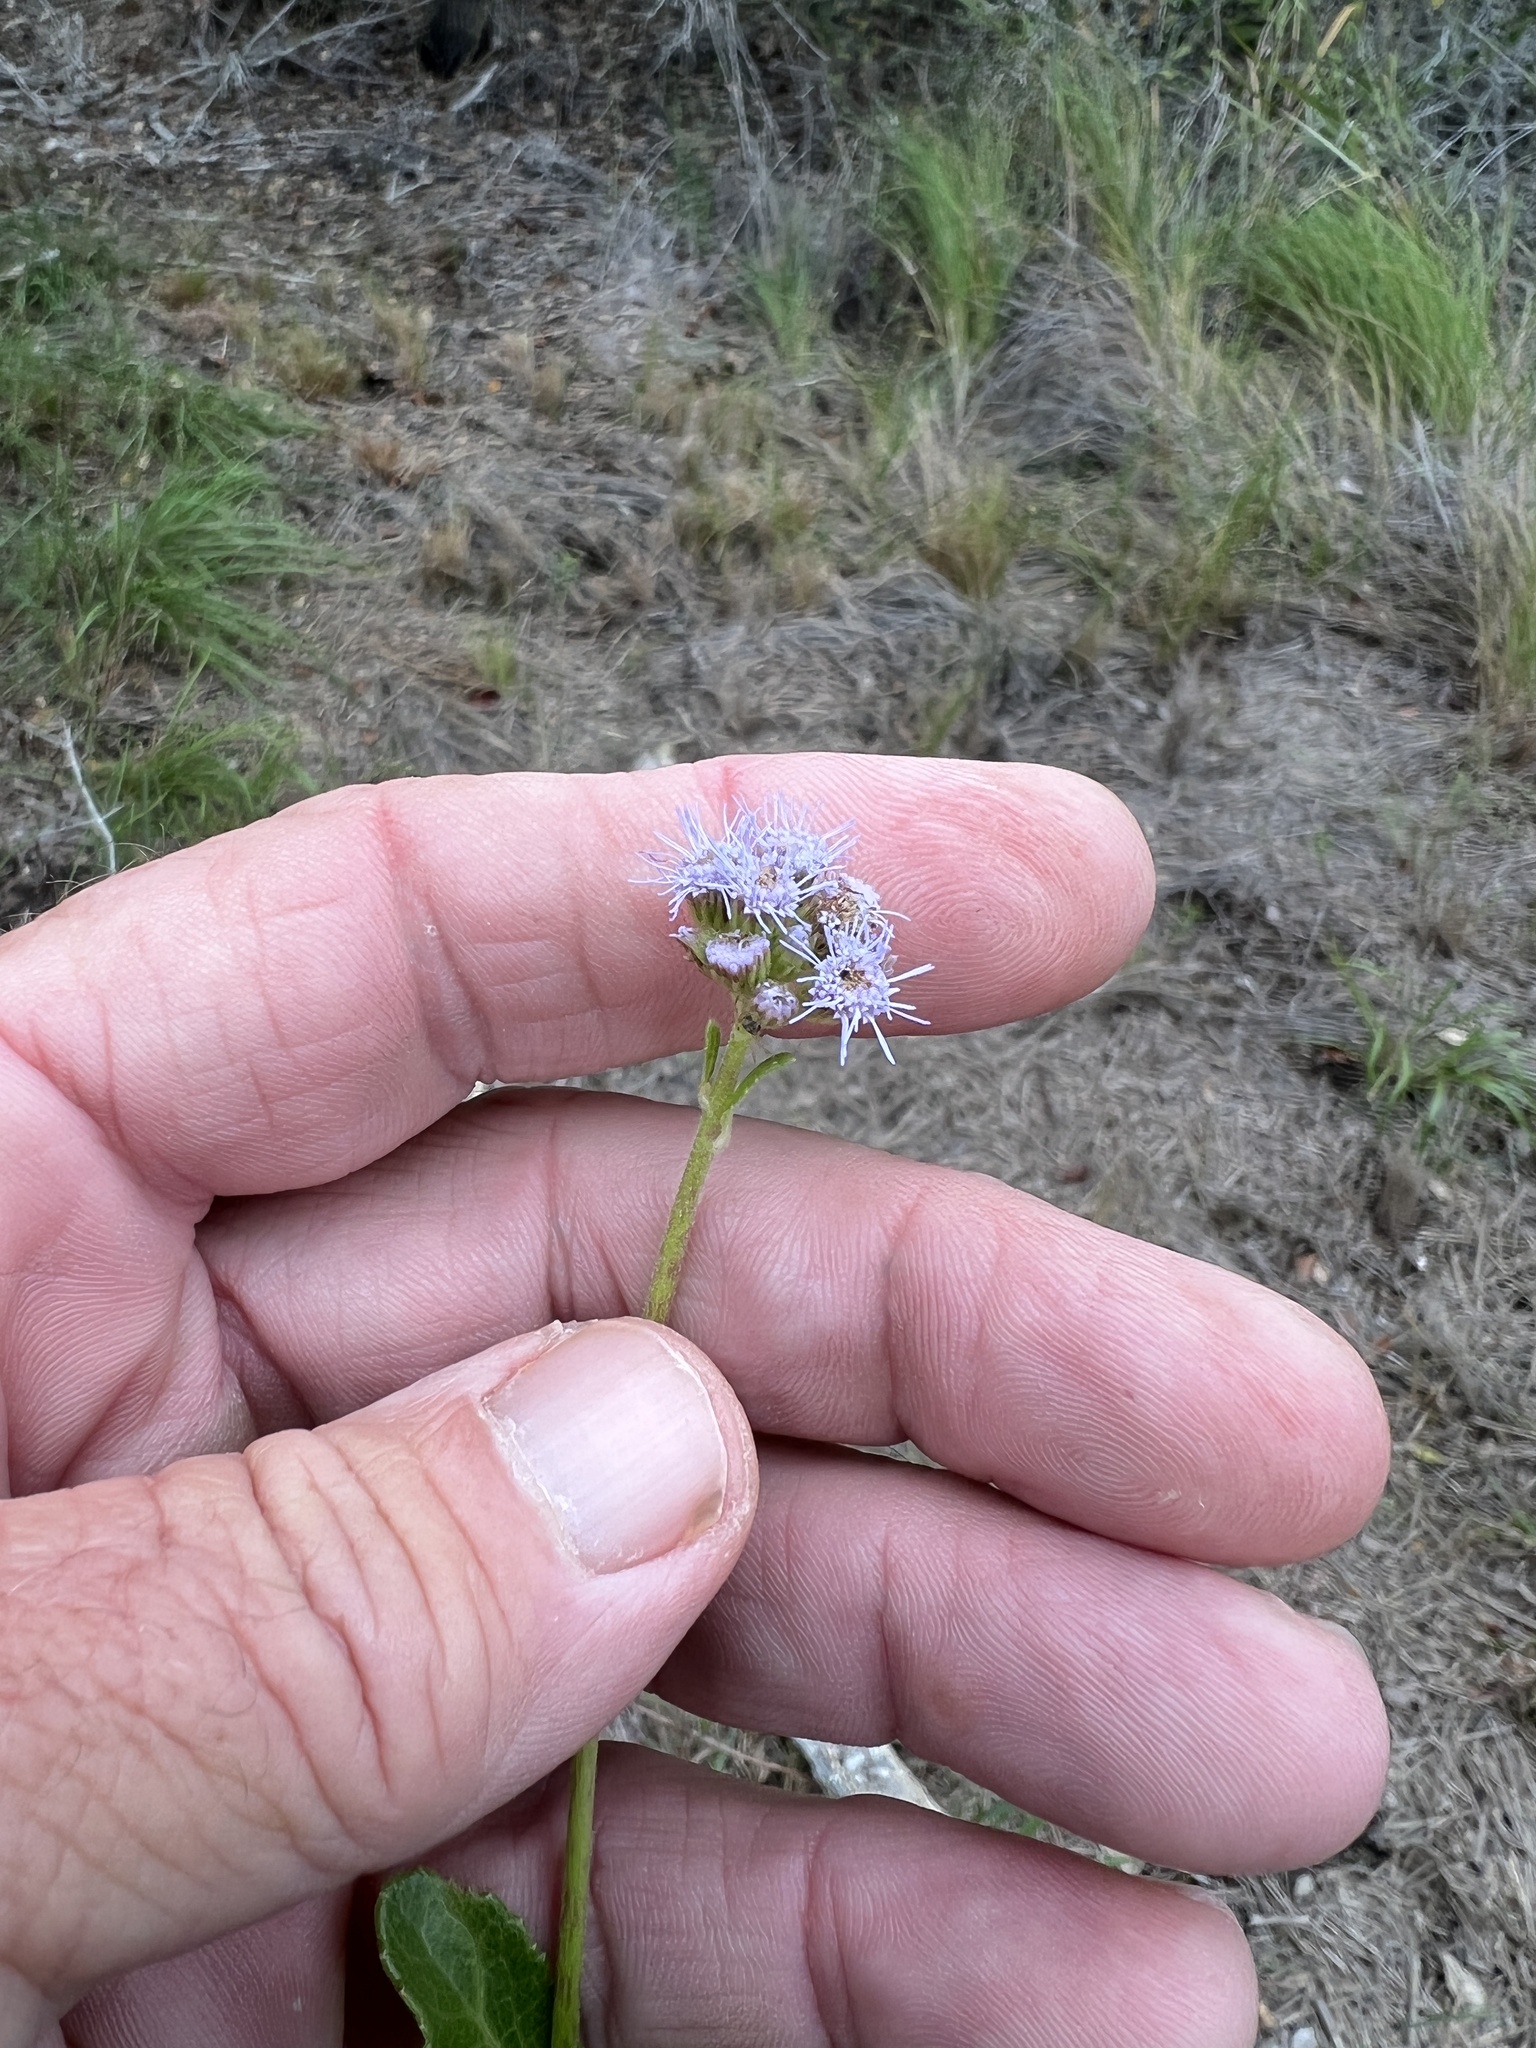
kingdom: Plantae
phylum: Tracheophyta
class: Magnoliopsida
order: Asterales
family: Asteraceae
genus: Conoclinium
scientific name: Conoclinium betonicifolium
